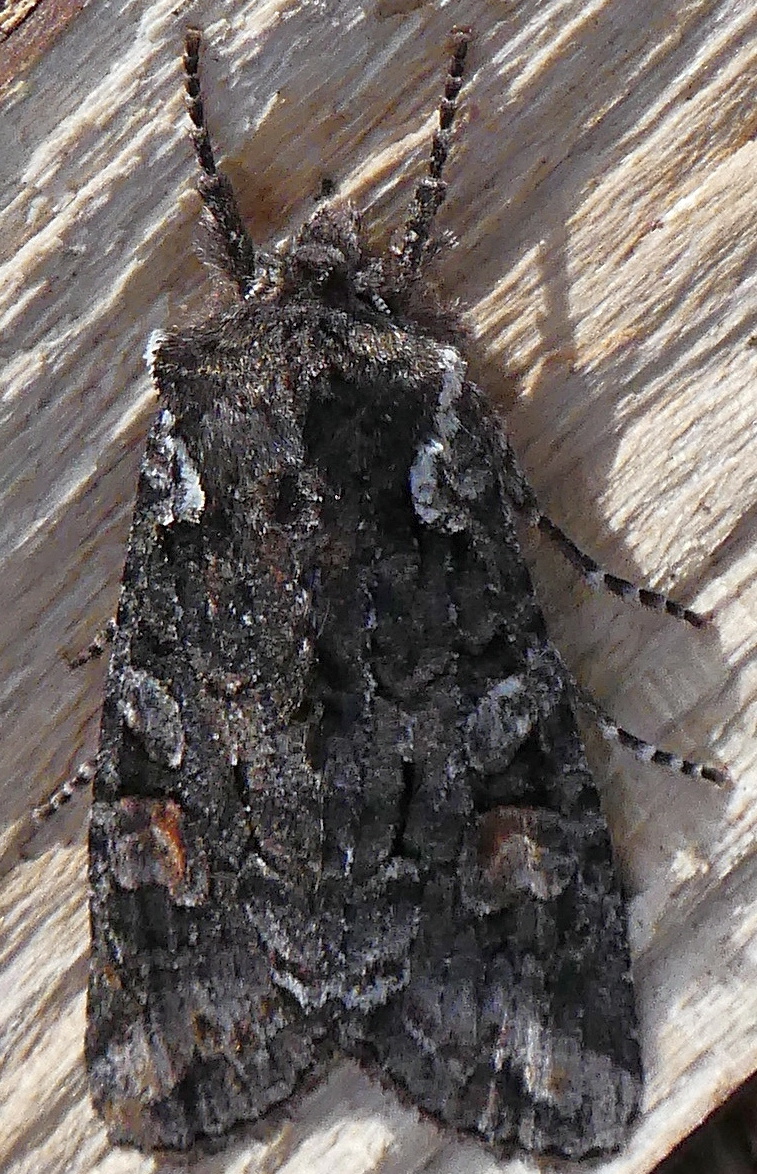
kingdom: Animalia
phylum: Arthropoda
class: Insecta
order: Lepidoptera
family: Noctuidae
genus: Lithophane
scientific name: Lithophane pexata
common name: Plush-naped pinion moth
